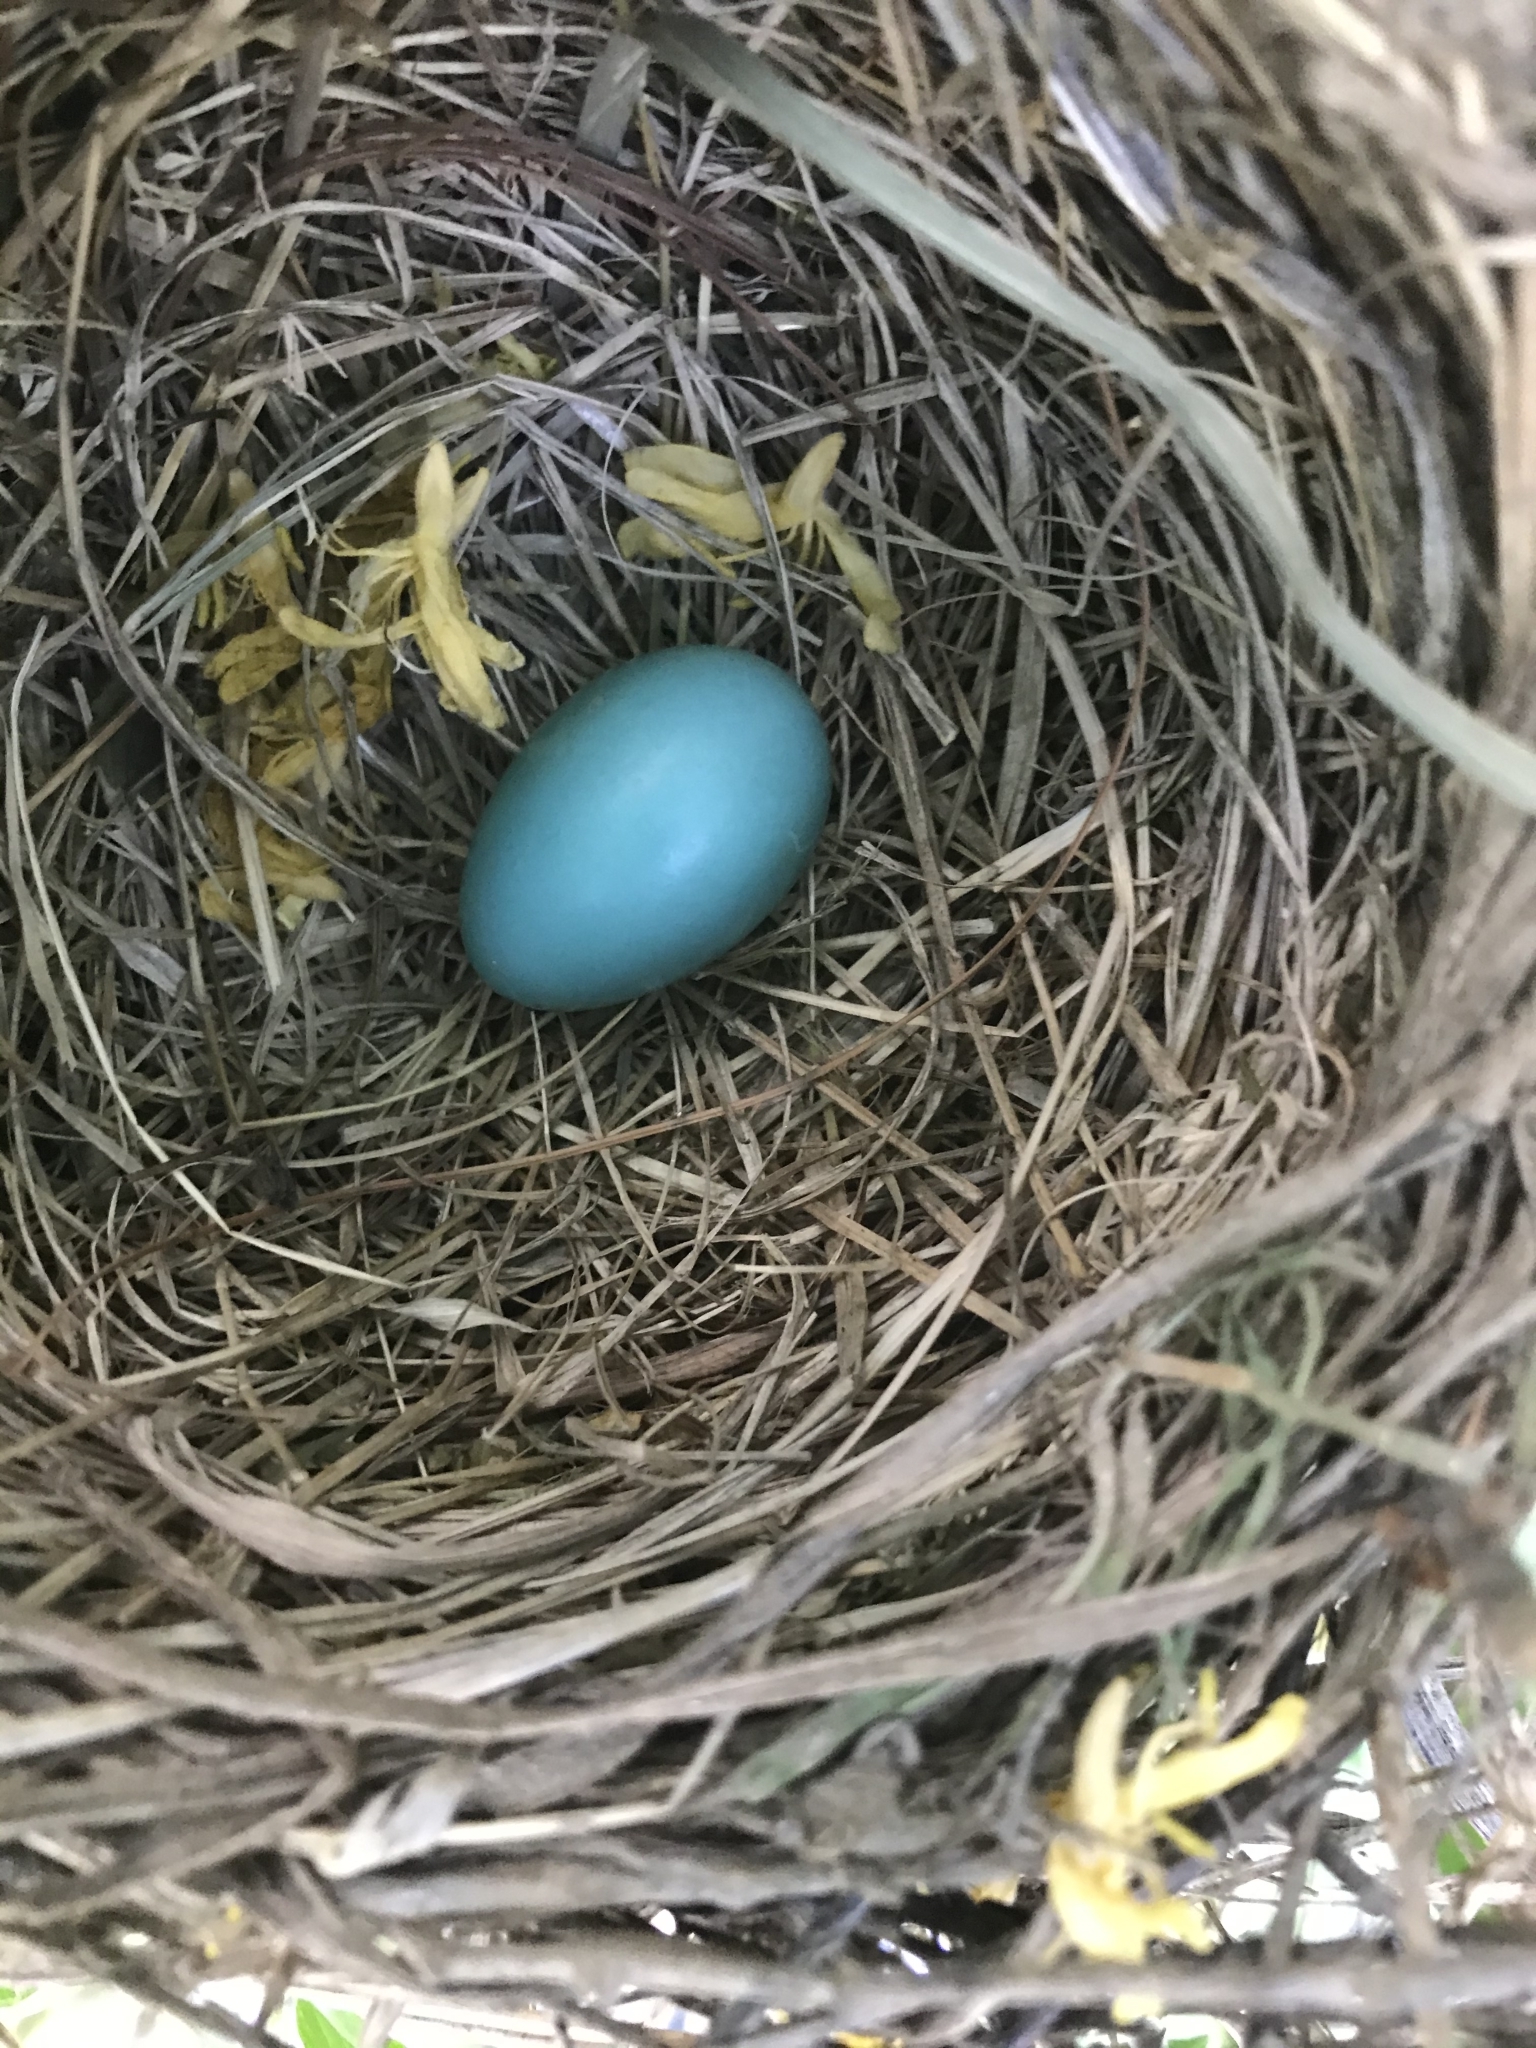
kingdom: Animalia
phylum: Chordata
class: Aves
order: Passeriformes
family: Turdidae
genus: Turdus
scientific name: Turdus migratorius
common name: American robin
